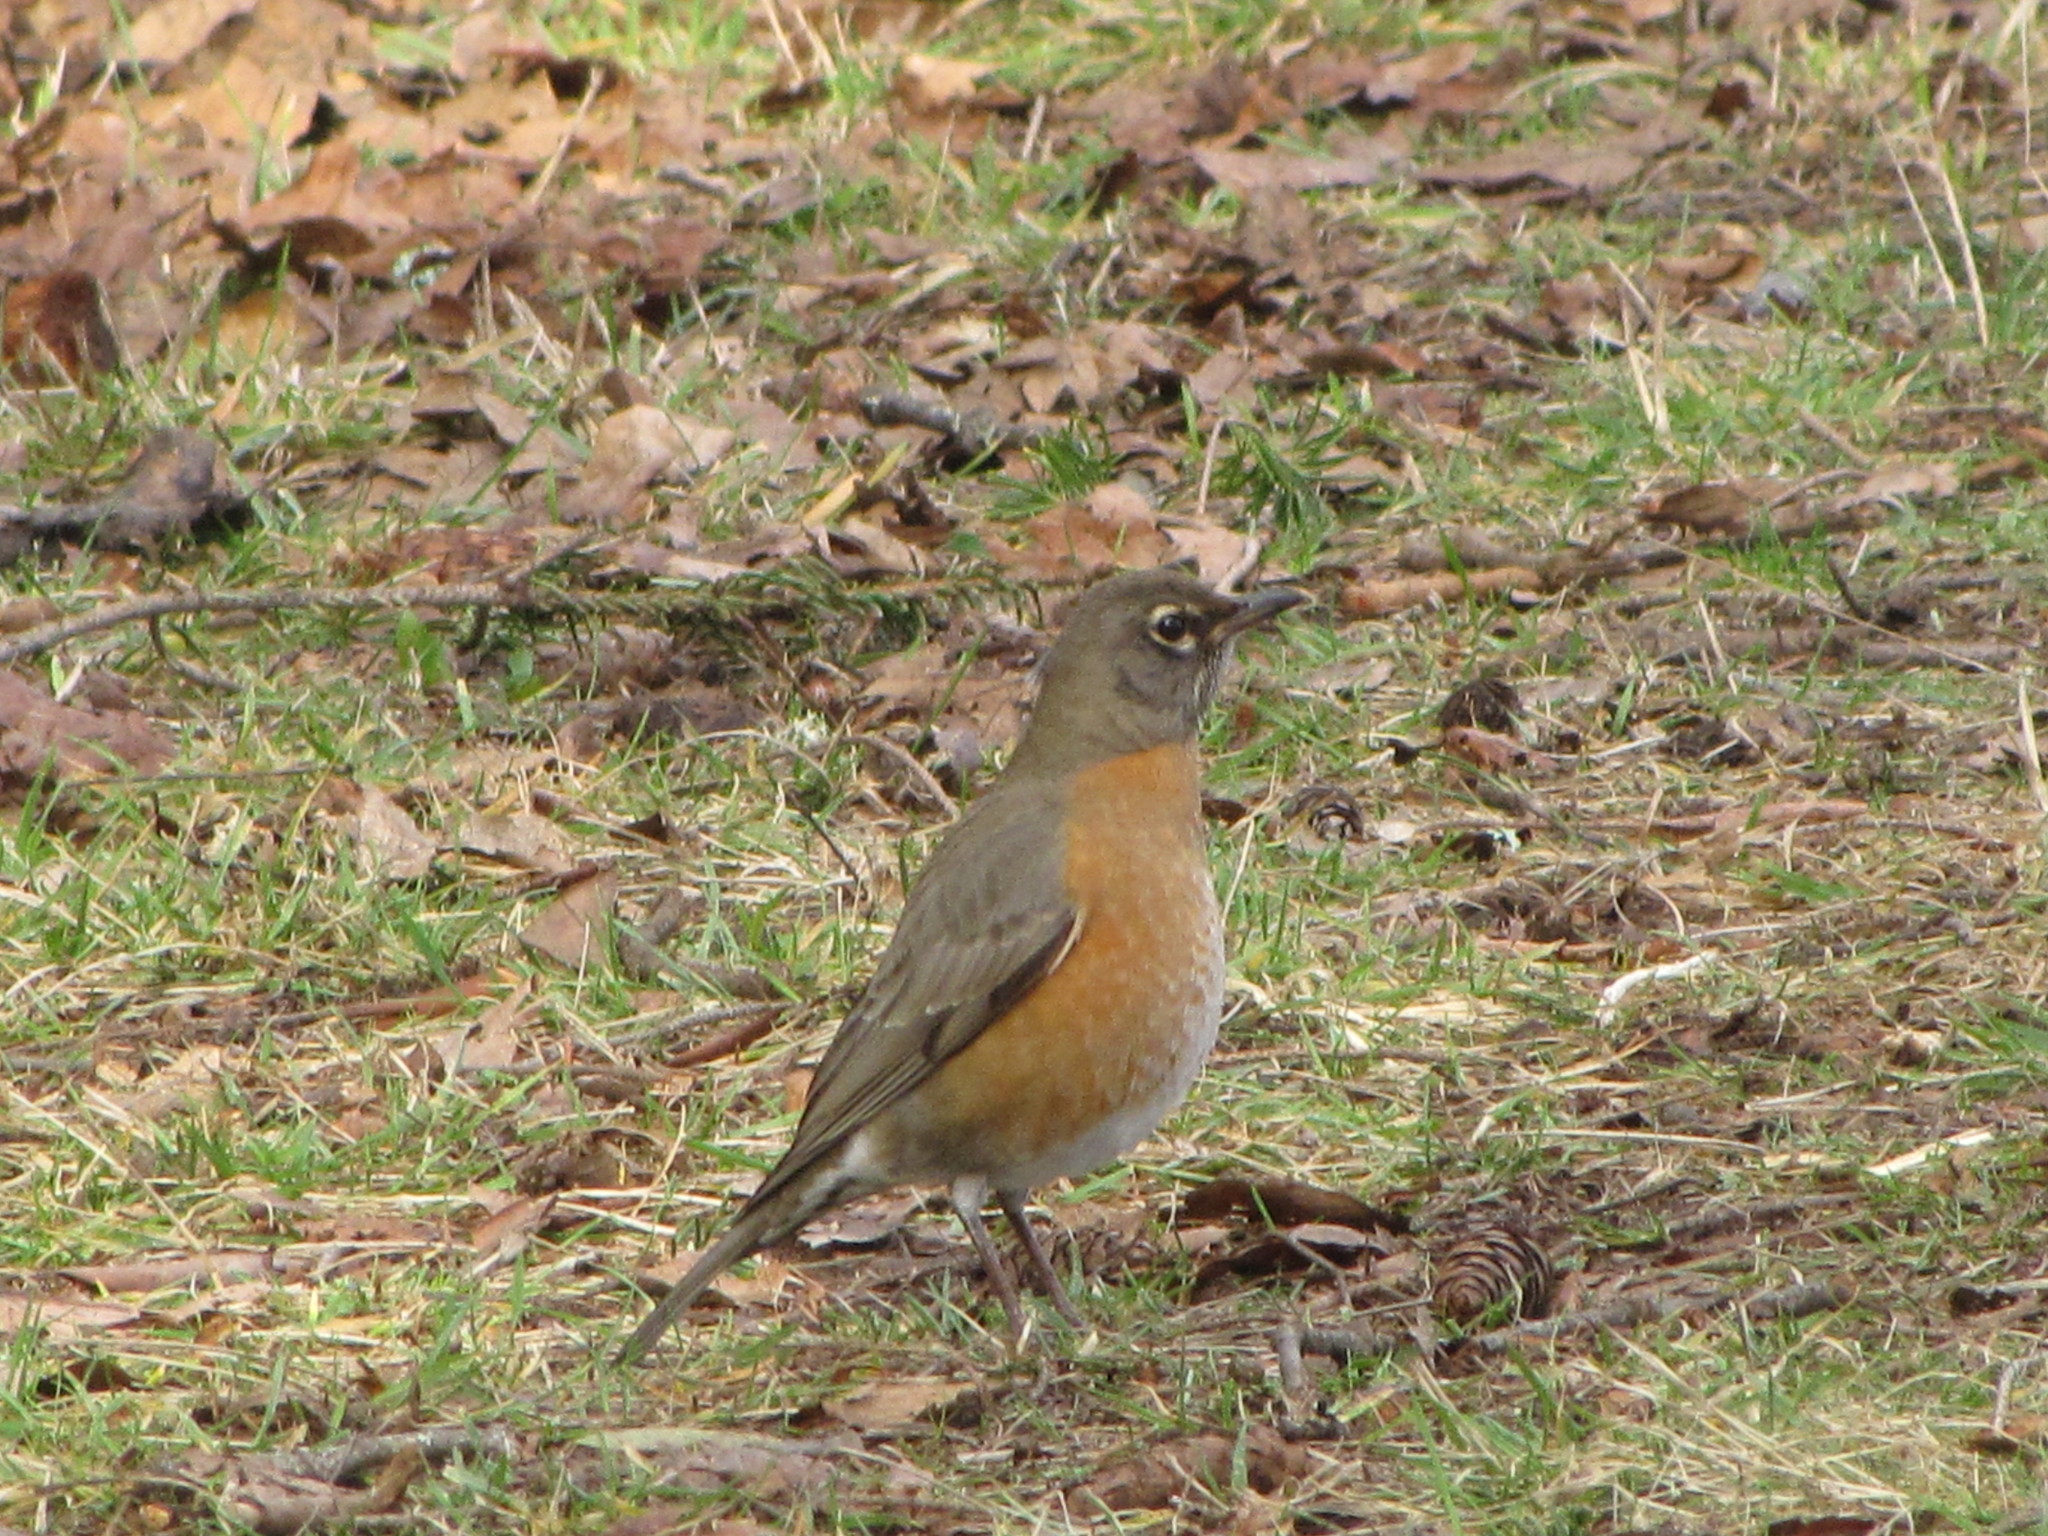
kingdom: Animalia
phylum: Chordata
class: Aves
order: Passeriformes
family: Turdidae
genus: Turdus
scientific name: Turdus migratorius
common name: American robin
